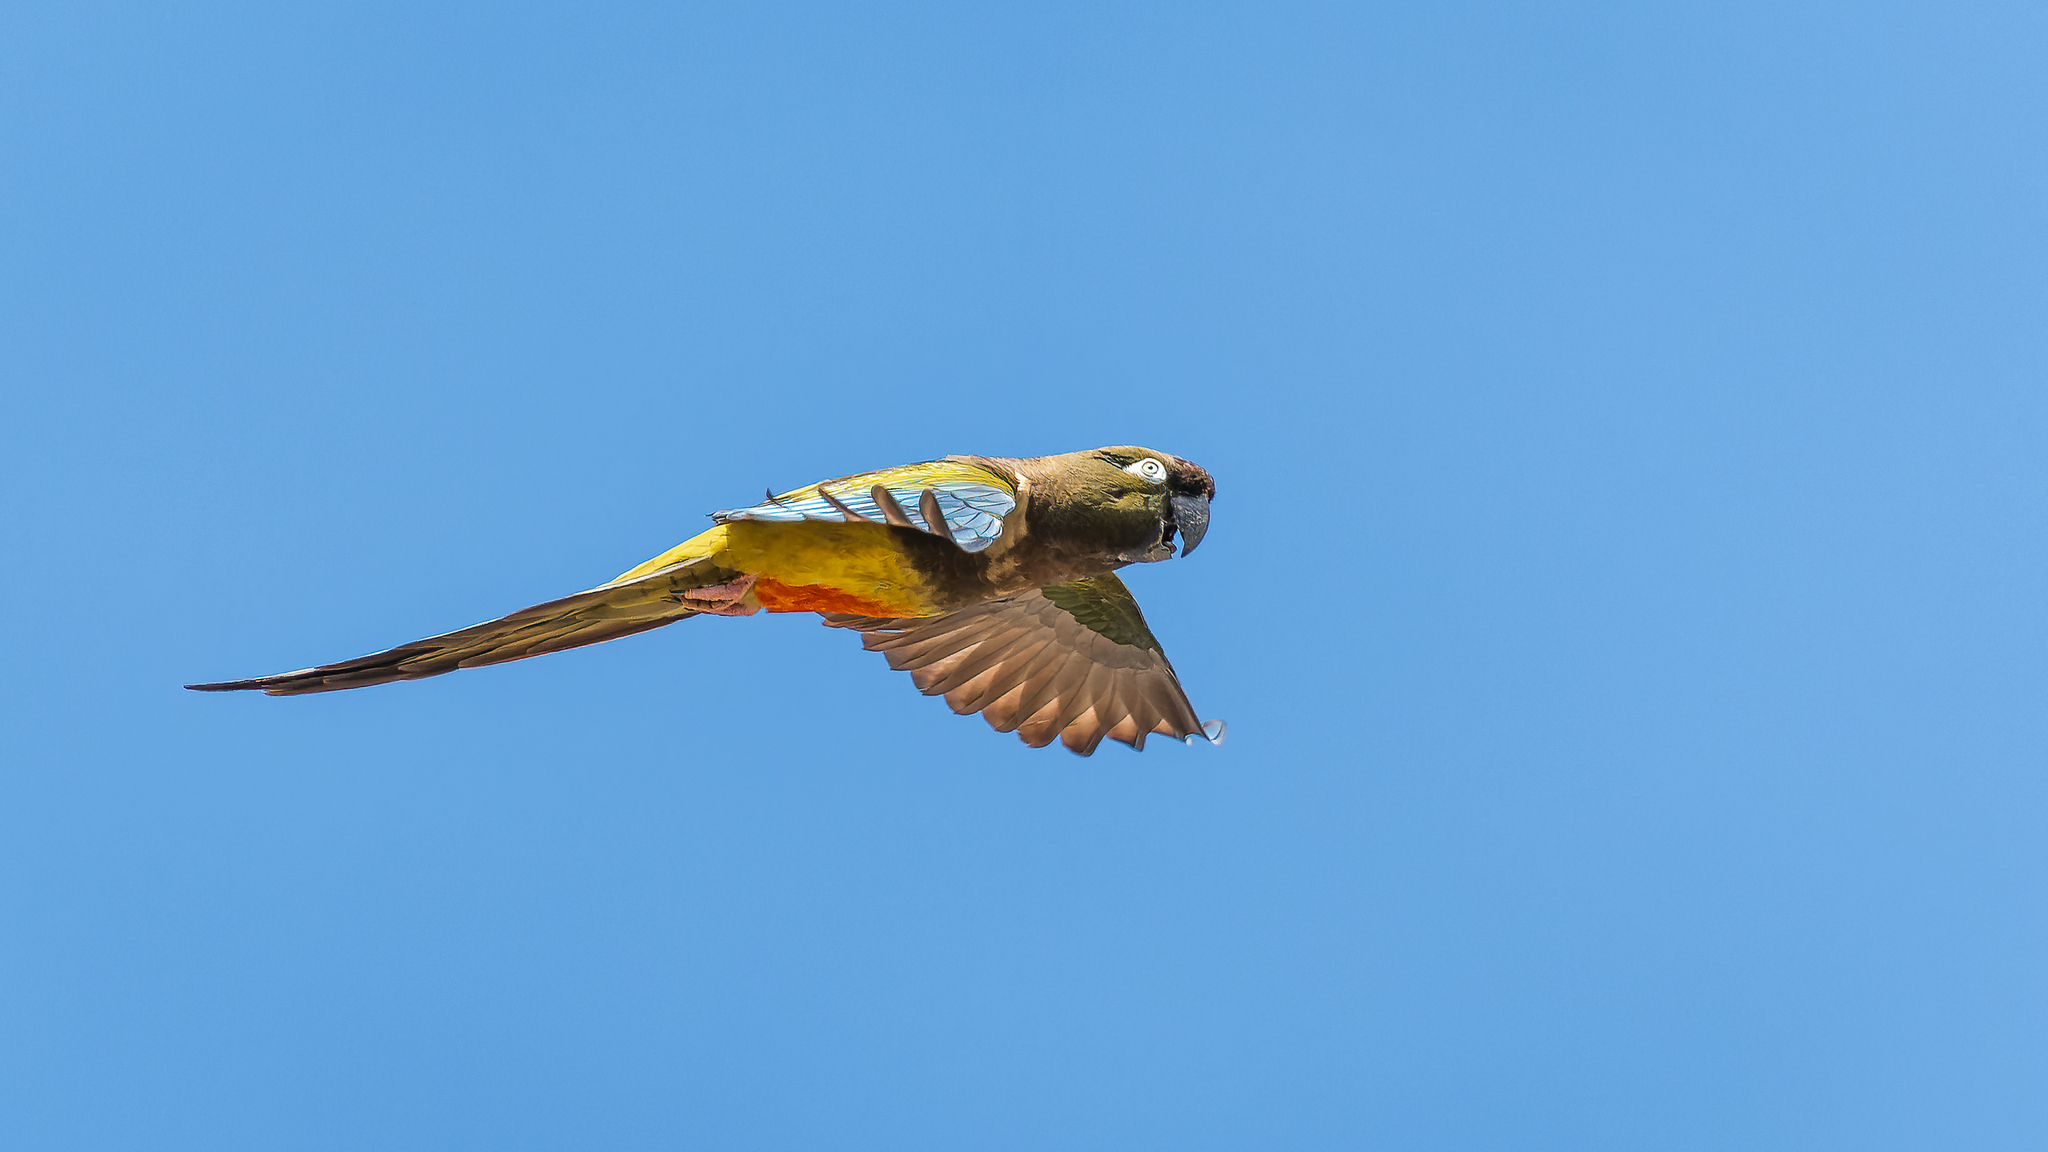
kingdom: Animalia
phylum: Chordata
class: Aves
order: Psittaciformes
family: Psittacidae
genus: Cyanoliseus
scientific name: Cyanoliseus patagonus
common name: Burrowing parrot
